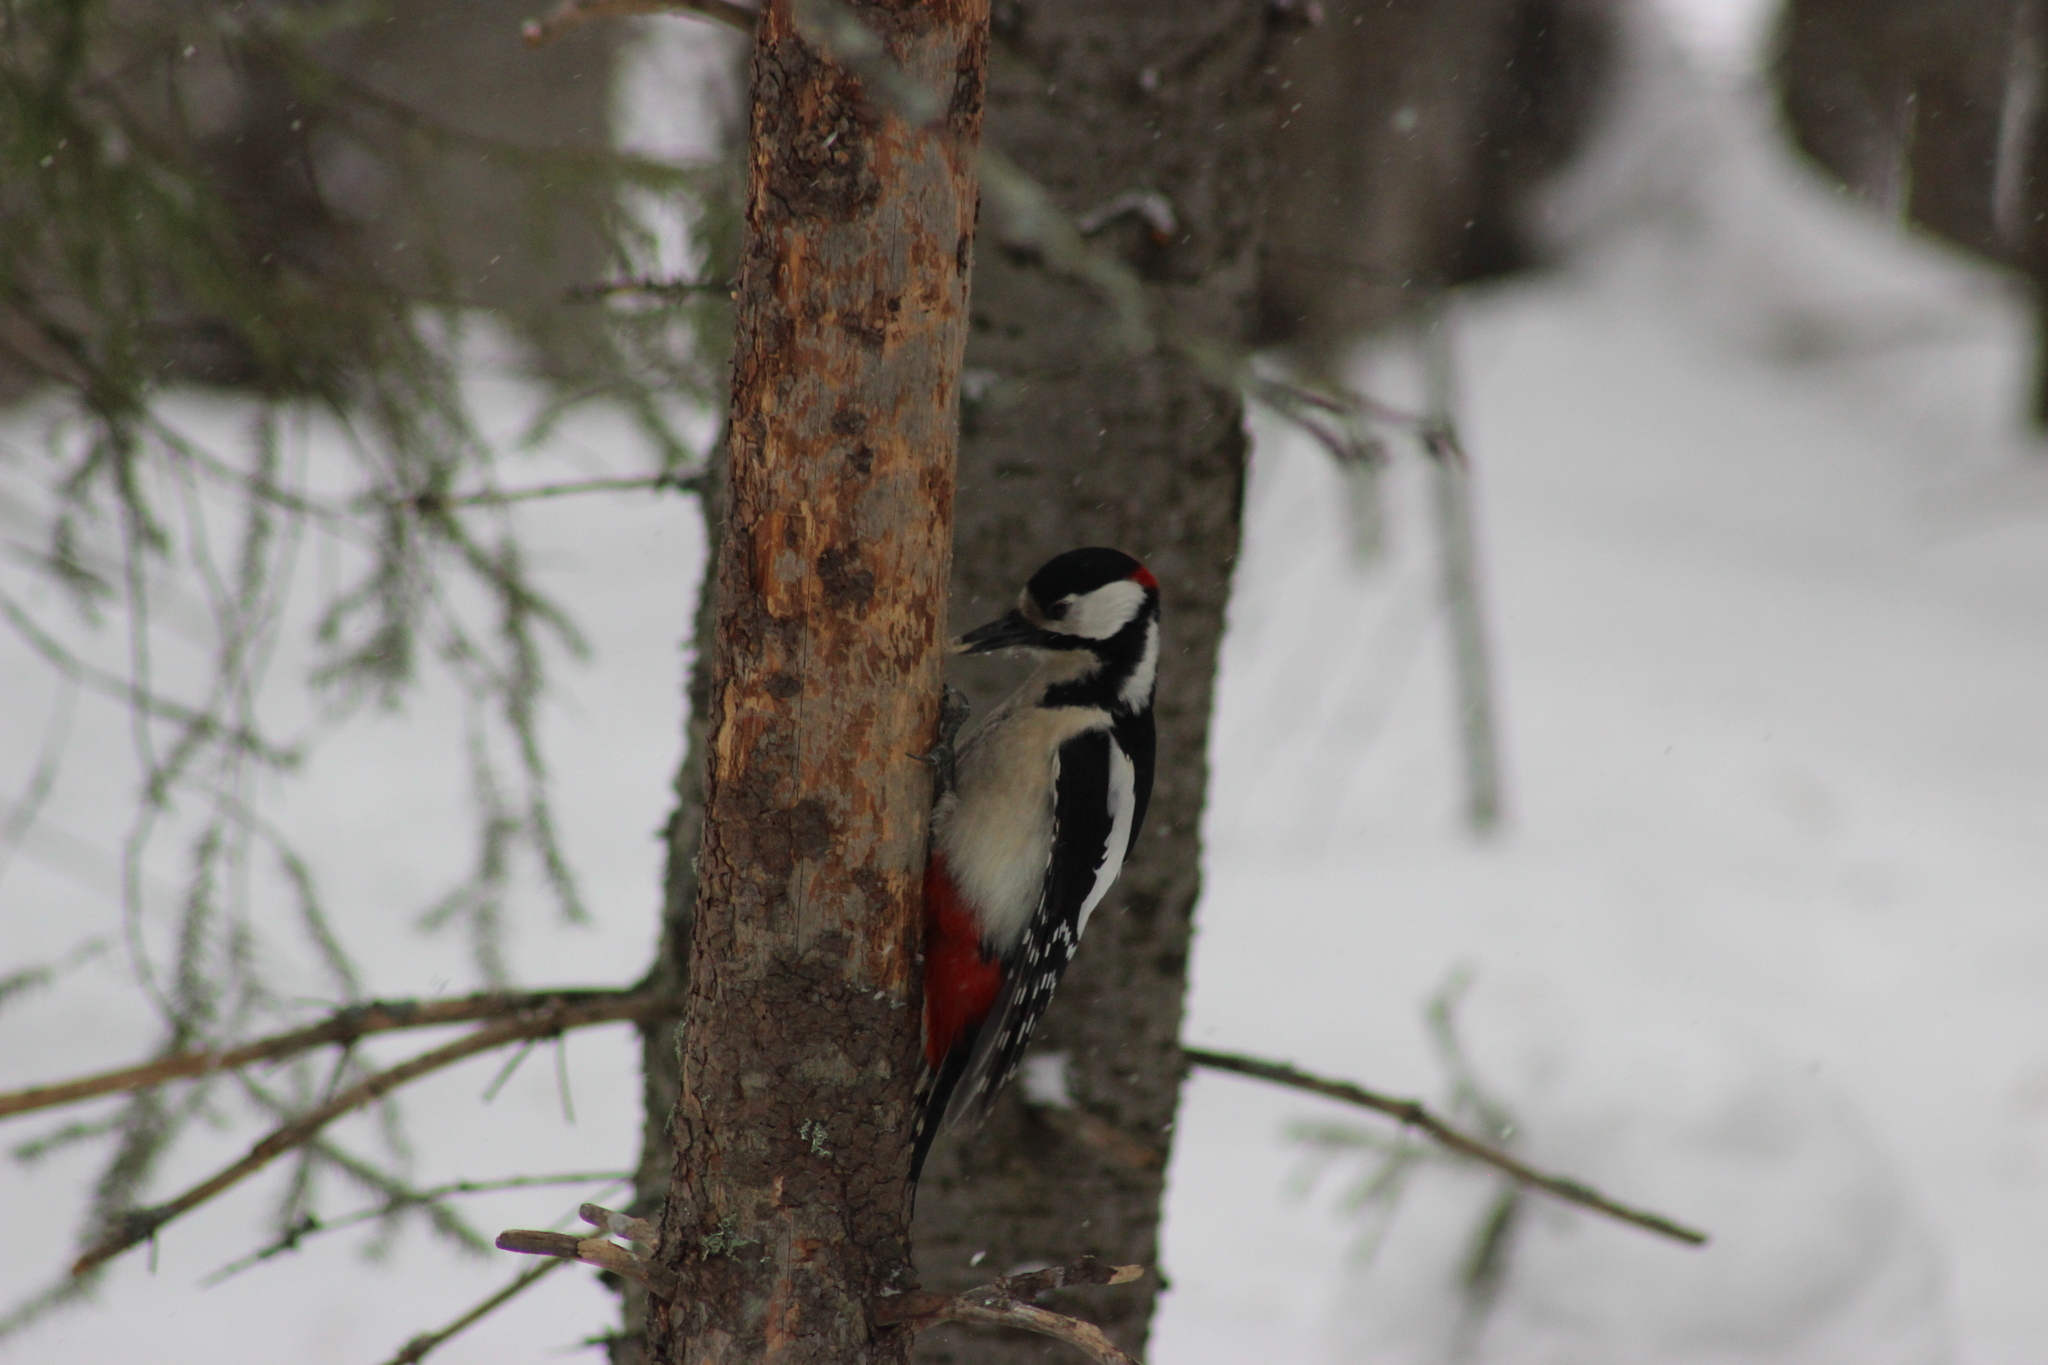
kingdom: Animalia
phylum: Chordata
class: Aves
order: Piciformes
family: Picidae
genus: Dendrocopos
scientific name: Dendrocopos major
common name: Great spotted woodpecker
